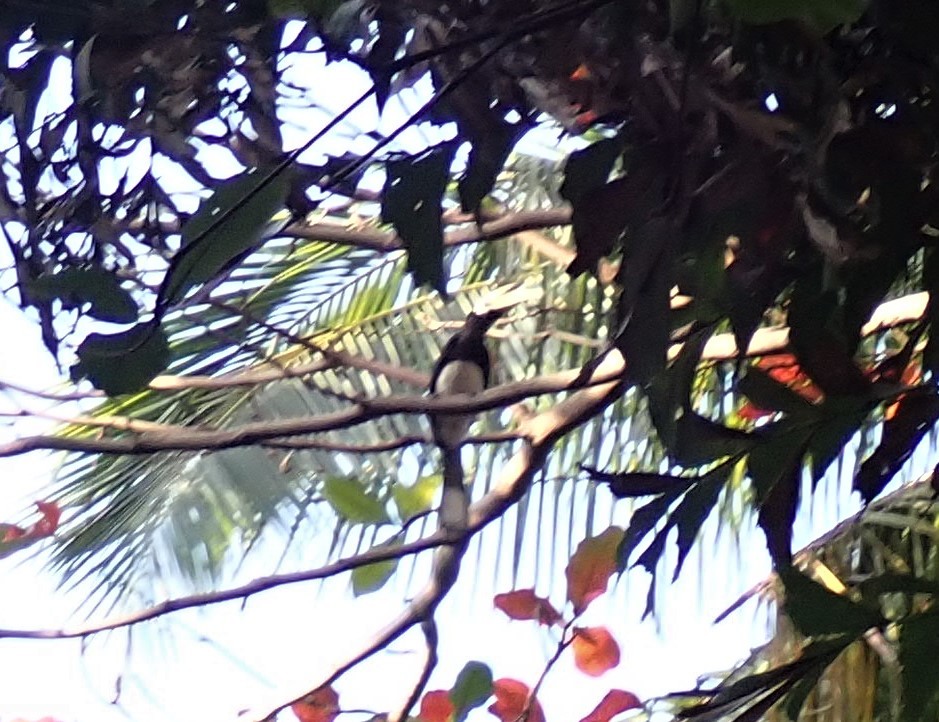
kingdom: Animalia
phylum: Chordata
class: Aves
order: Bucerotiformes
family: Bucerotidae
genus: Anthracoceros
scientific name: Anthracoceros albirostris
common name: Oriental pied-hornbill
